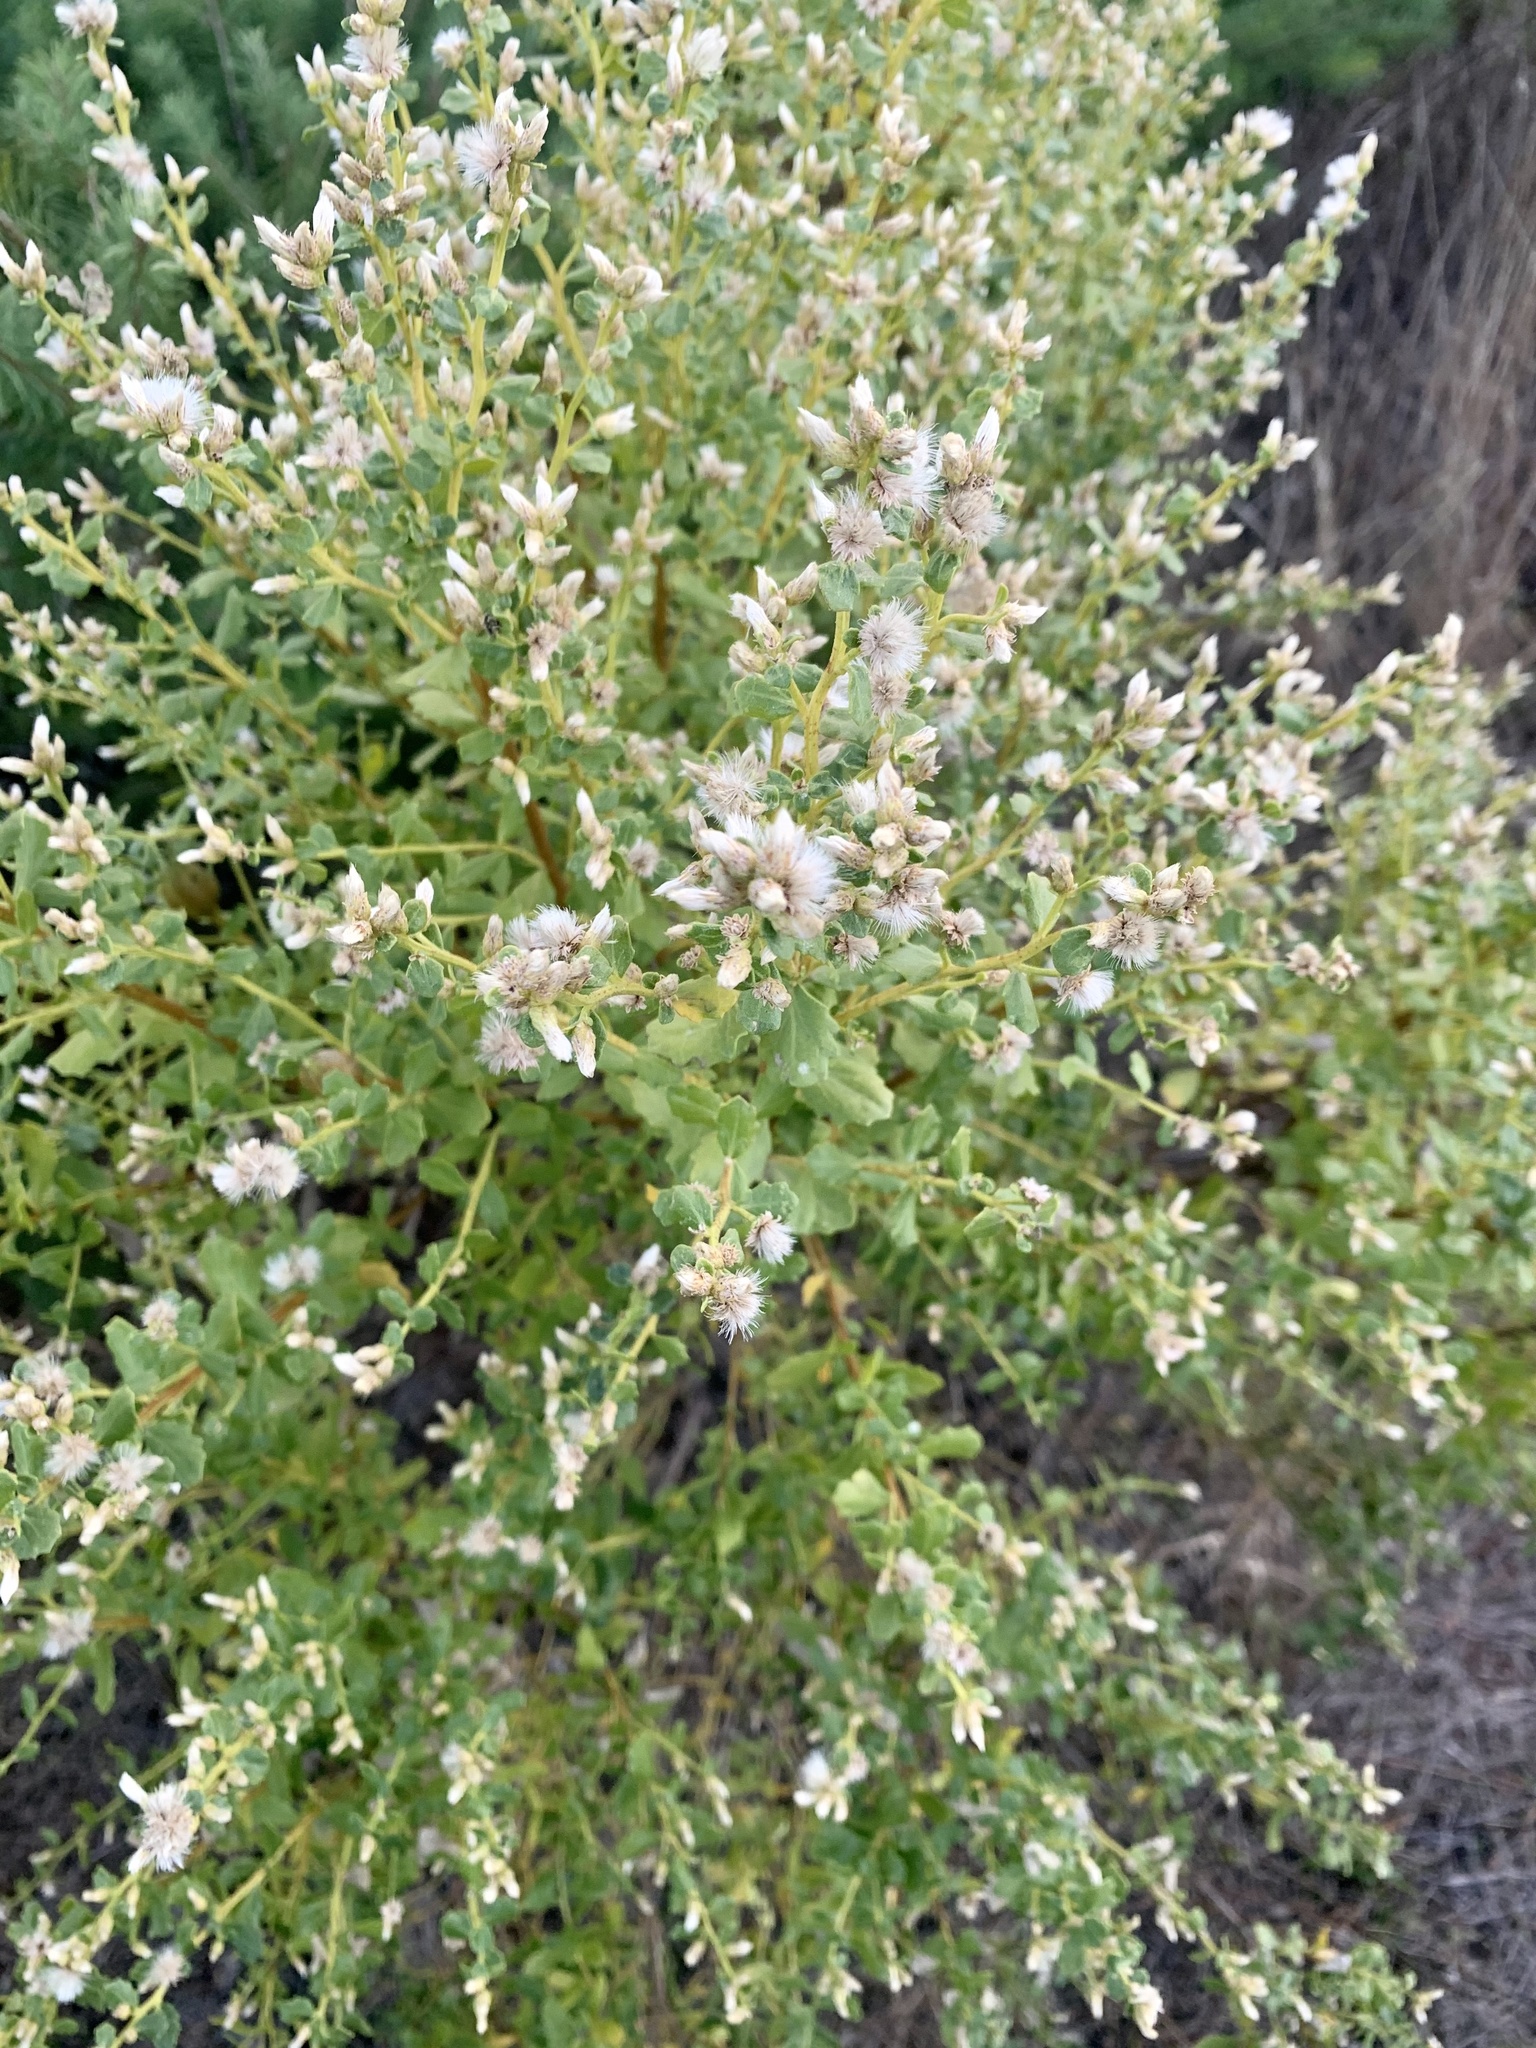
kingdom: Plantae
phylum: Tracheophyta
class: Magnoliopsida
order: Asterales
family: Asteraceae
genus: Baccharis
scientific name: Baccharis pilularis
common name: Coyotebrush
